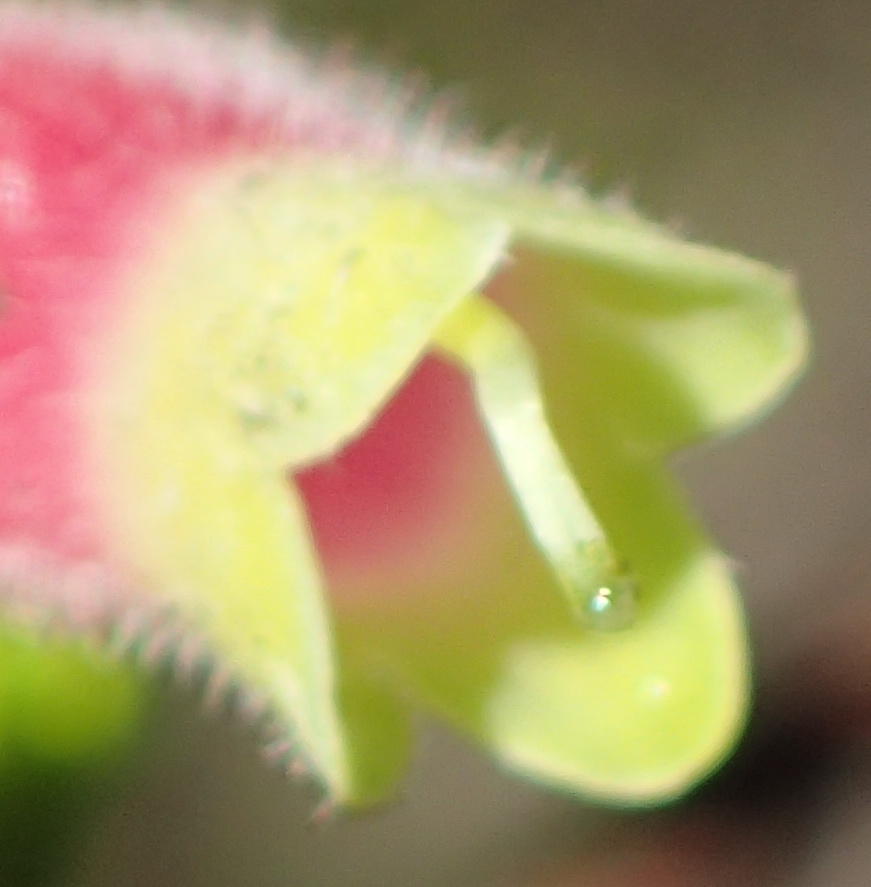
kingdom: Plantae
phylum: Tracheophyta
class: Magnoliopsida
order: Ericales
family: Ericaceae
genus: Erica
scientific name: Erica densifolia
